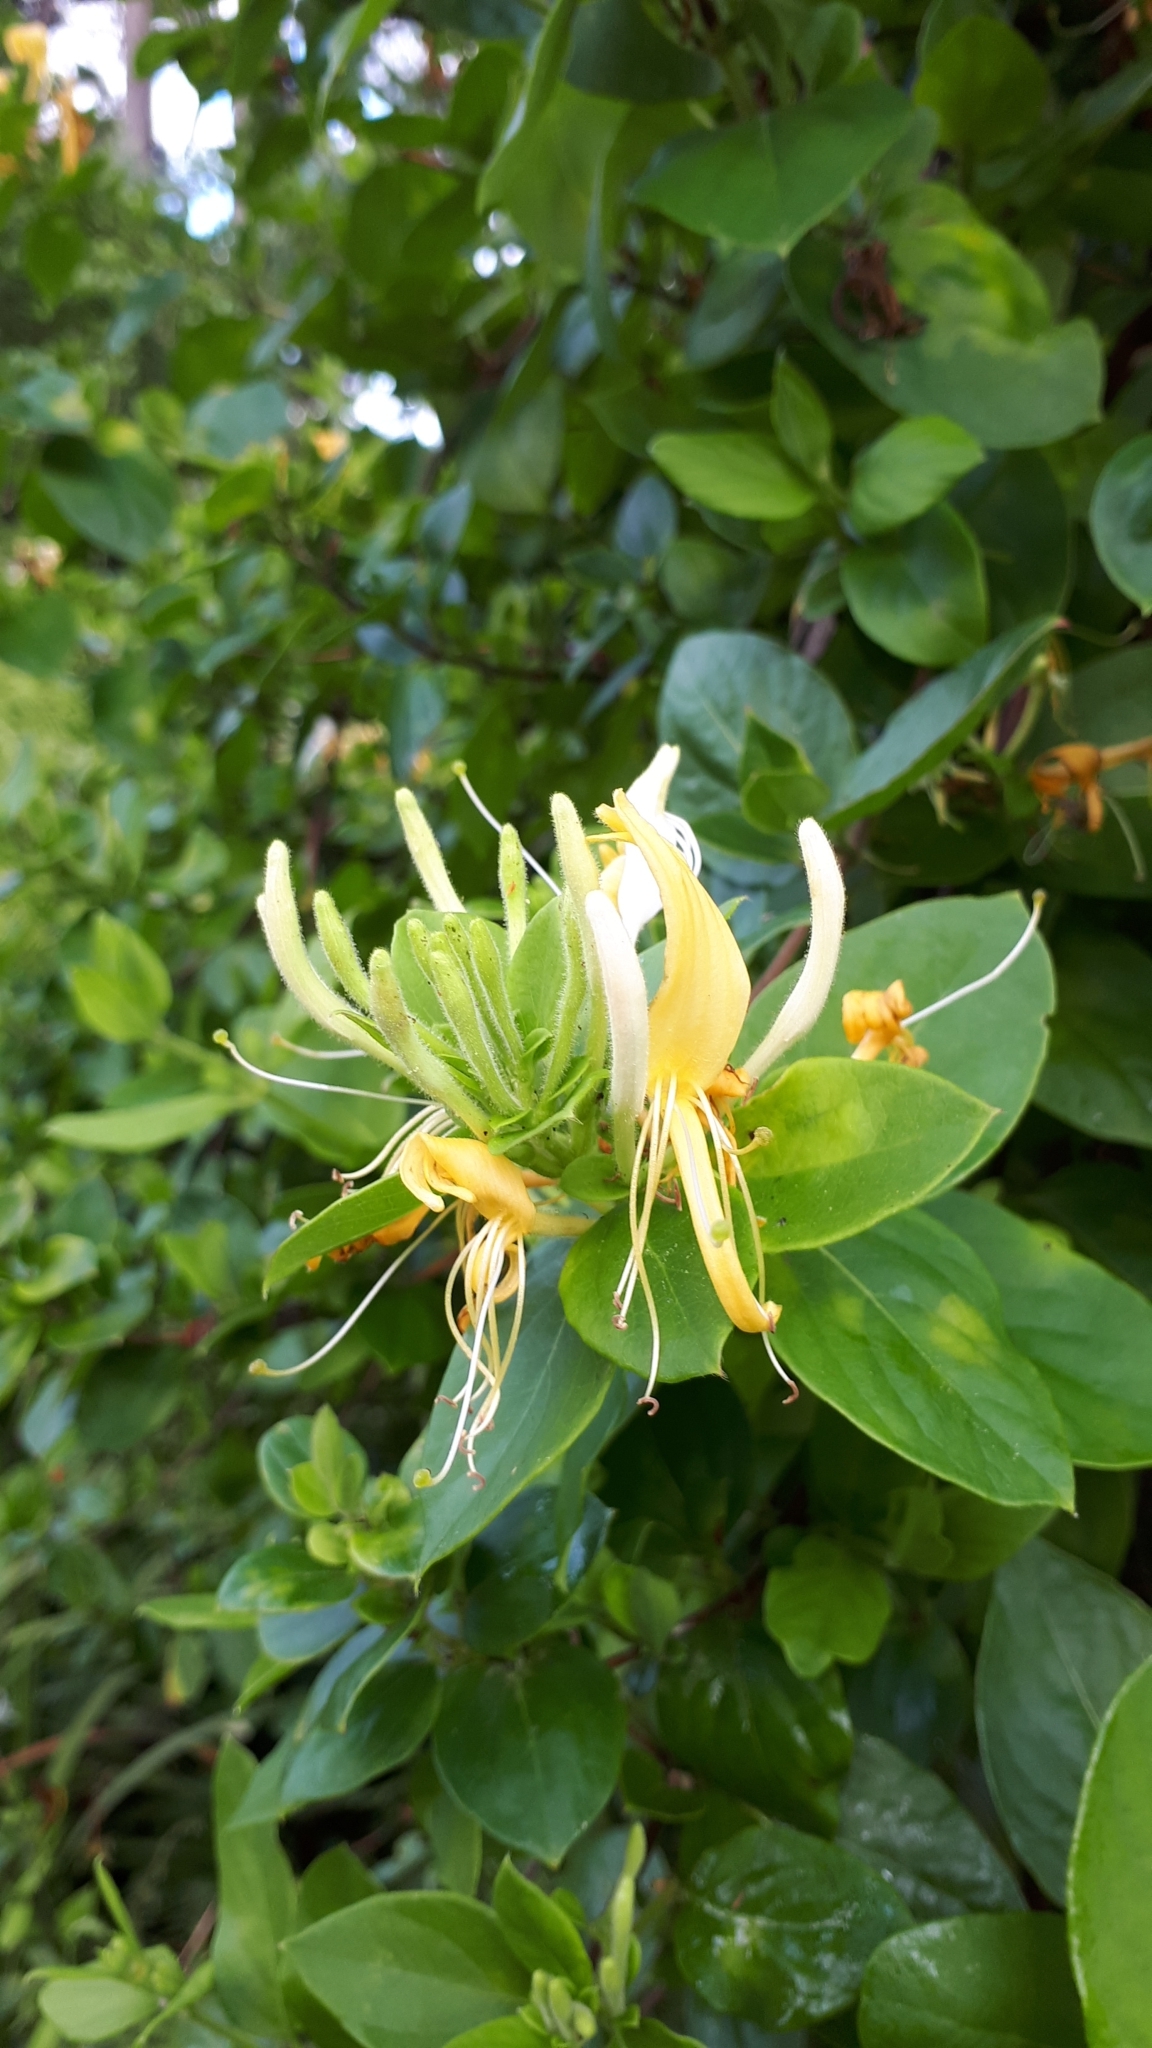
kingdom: Plantae
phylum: Tracheophyta
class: Magnoliopsida
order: Dipsacales
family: Caprifoliaceae
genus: Lonicera
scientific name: Lonicera japonica
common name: Japanese honeysuckle
